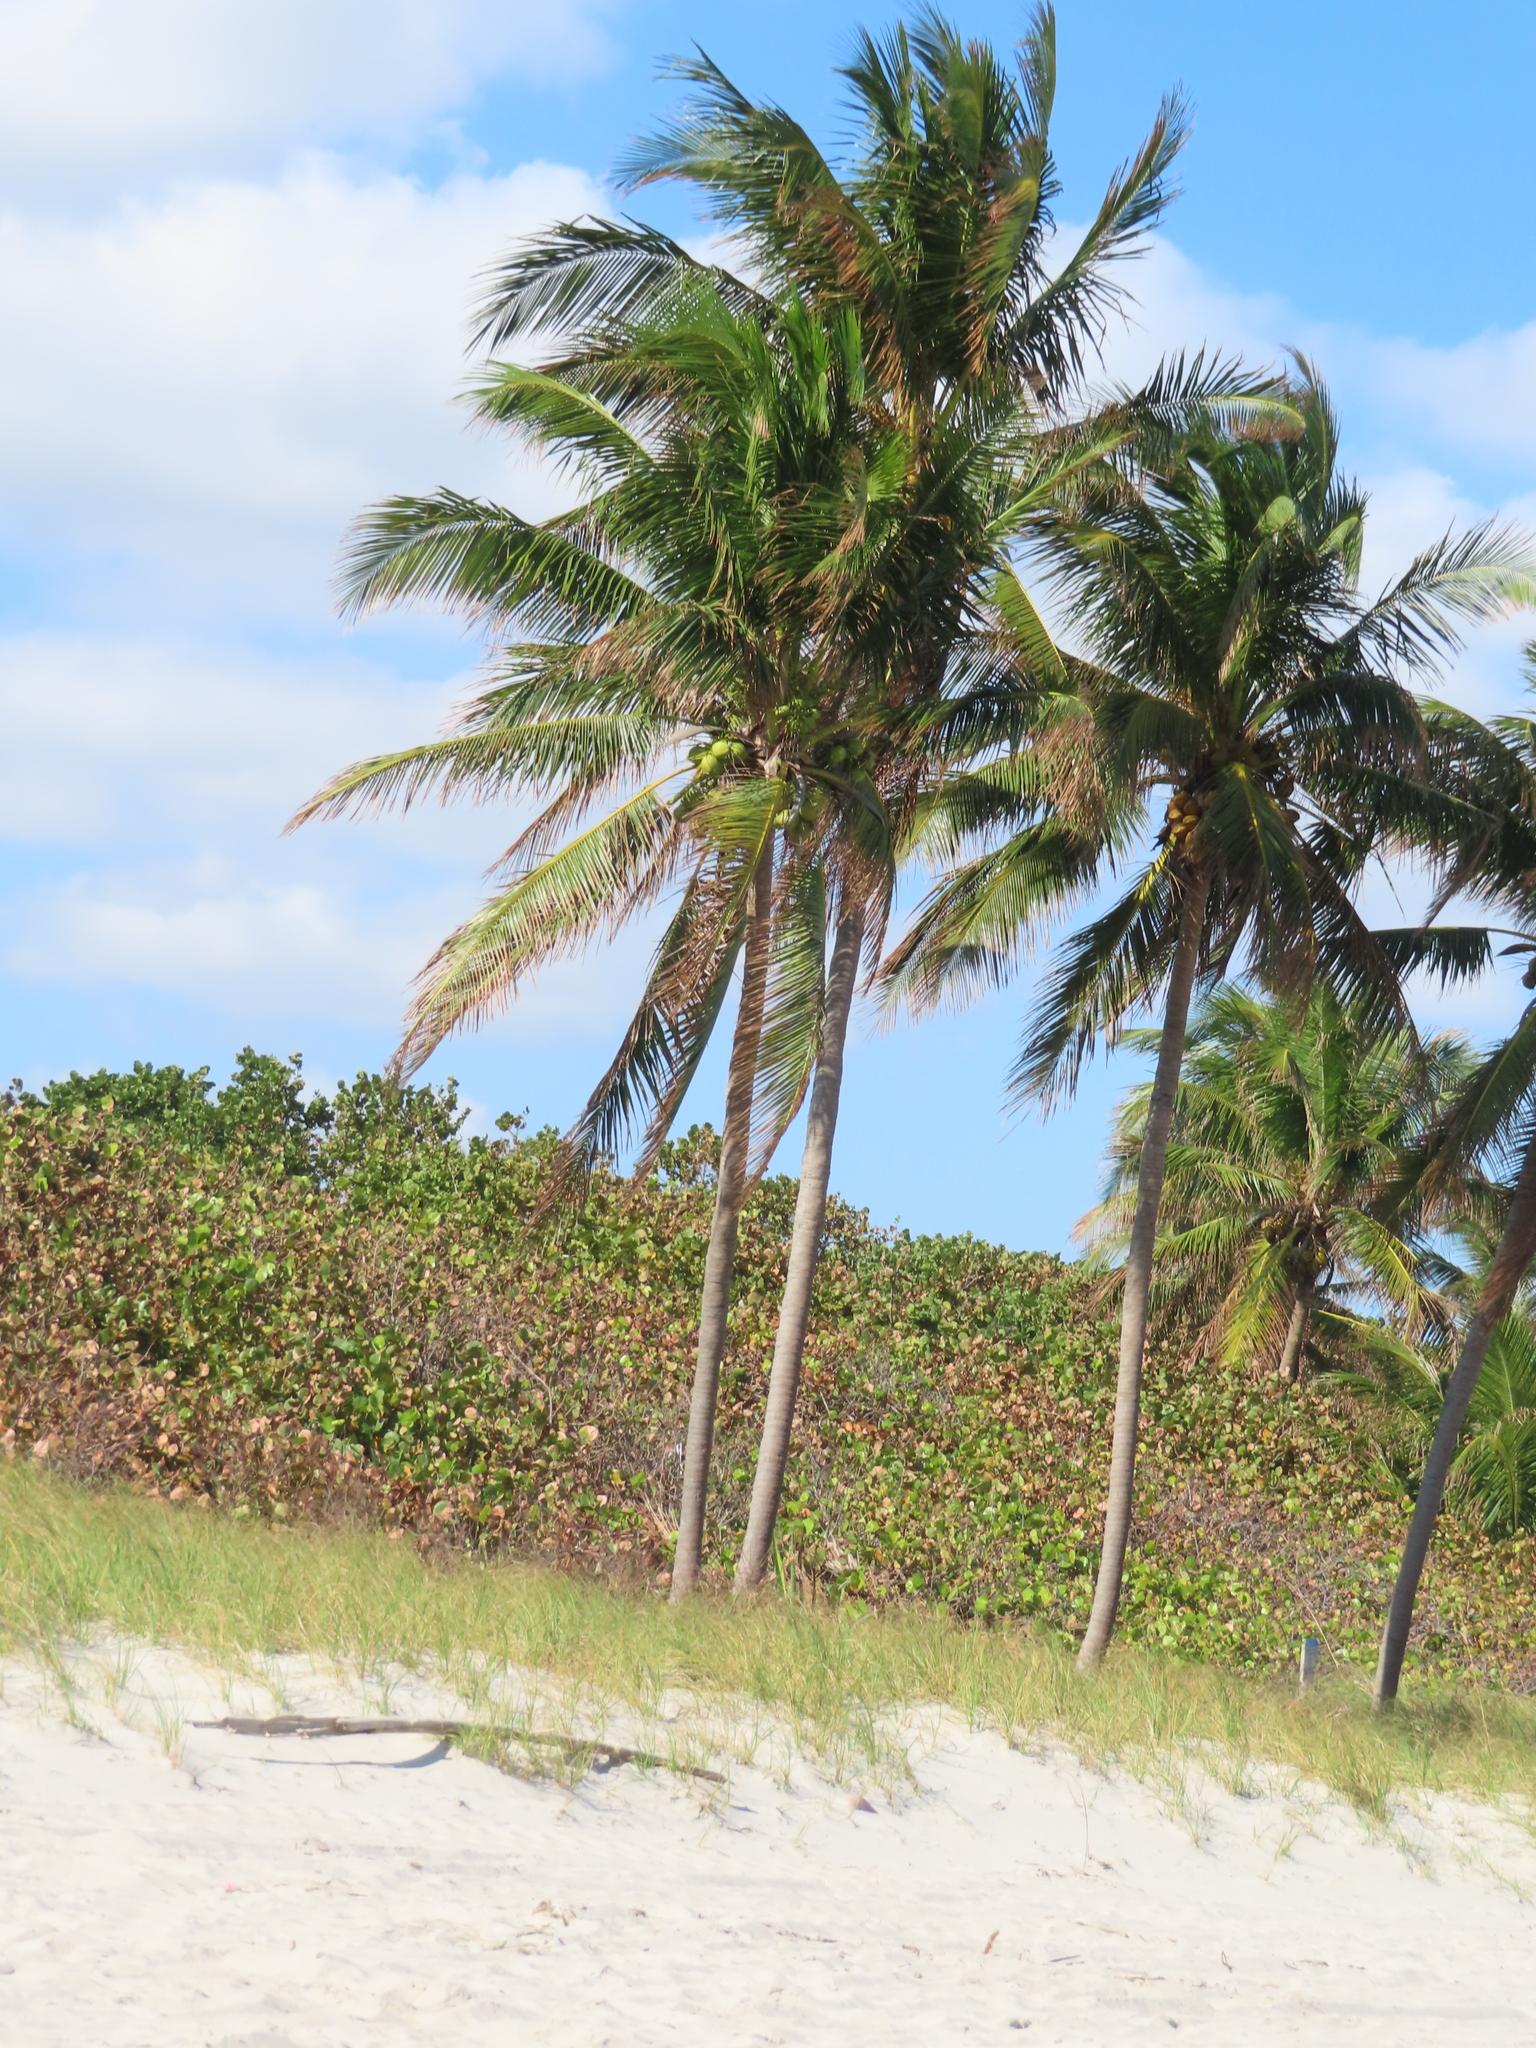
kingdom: Plantae
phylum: Tracheophyta
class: Liliopsida
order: Arecales
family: Arecaceae
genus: Cocos
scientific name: Cocos nucifera
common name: Coconut palm
